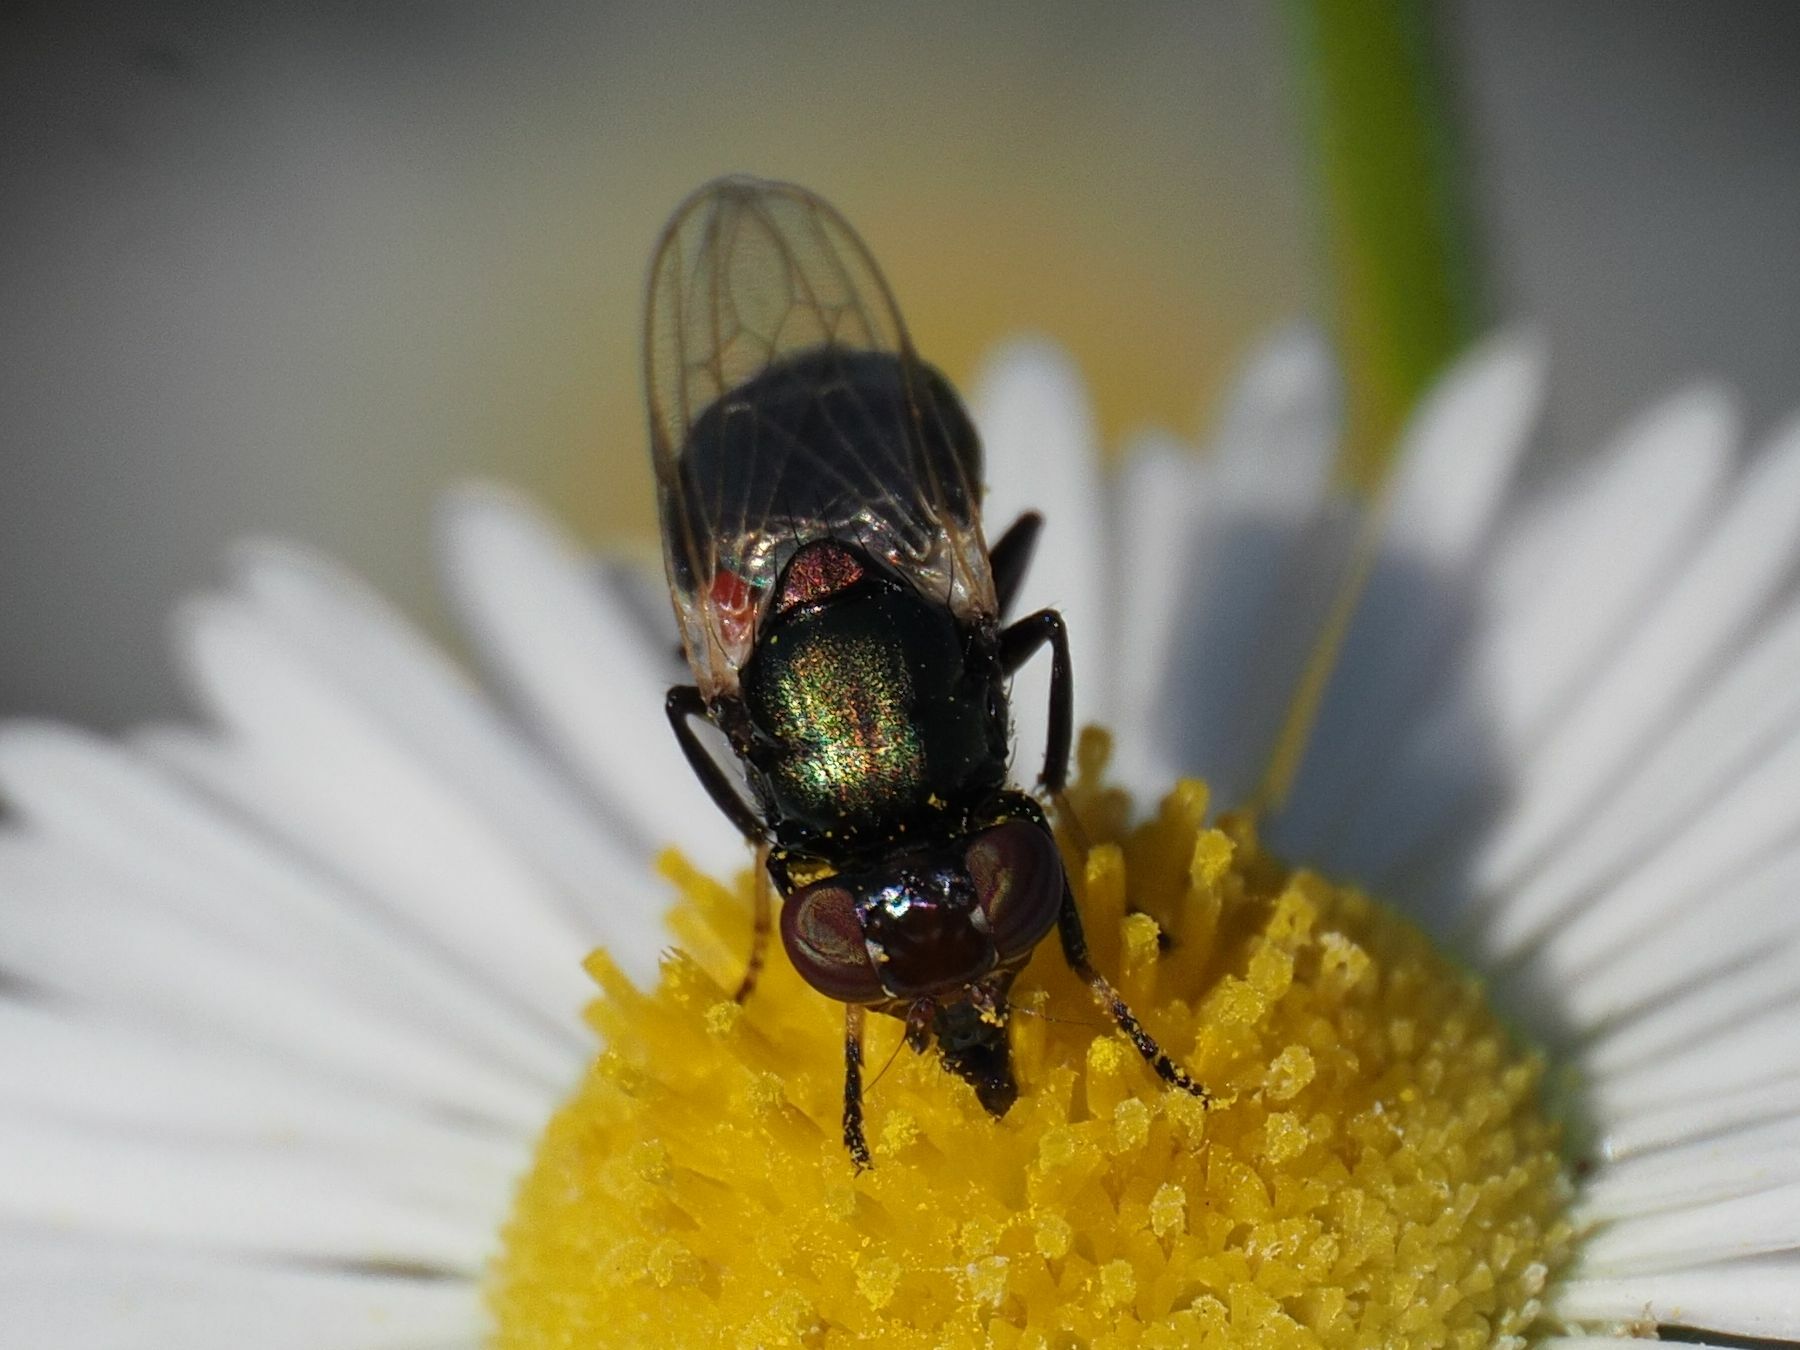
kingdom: Animalia
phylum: Arthropoda
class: Insecta
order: Diptera
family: Ulidiidae
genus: Physiphora
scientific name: Physiphora alceae
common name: Picture-winged fly
